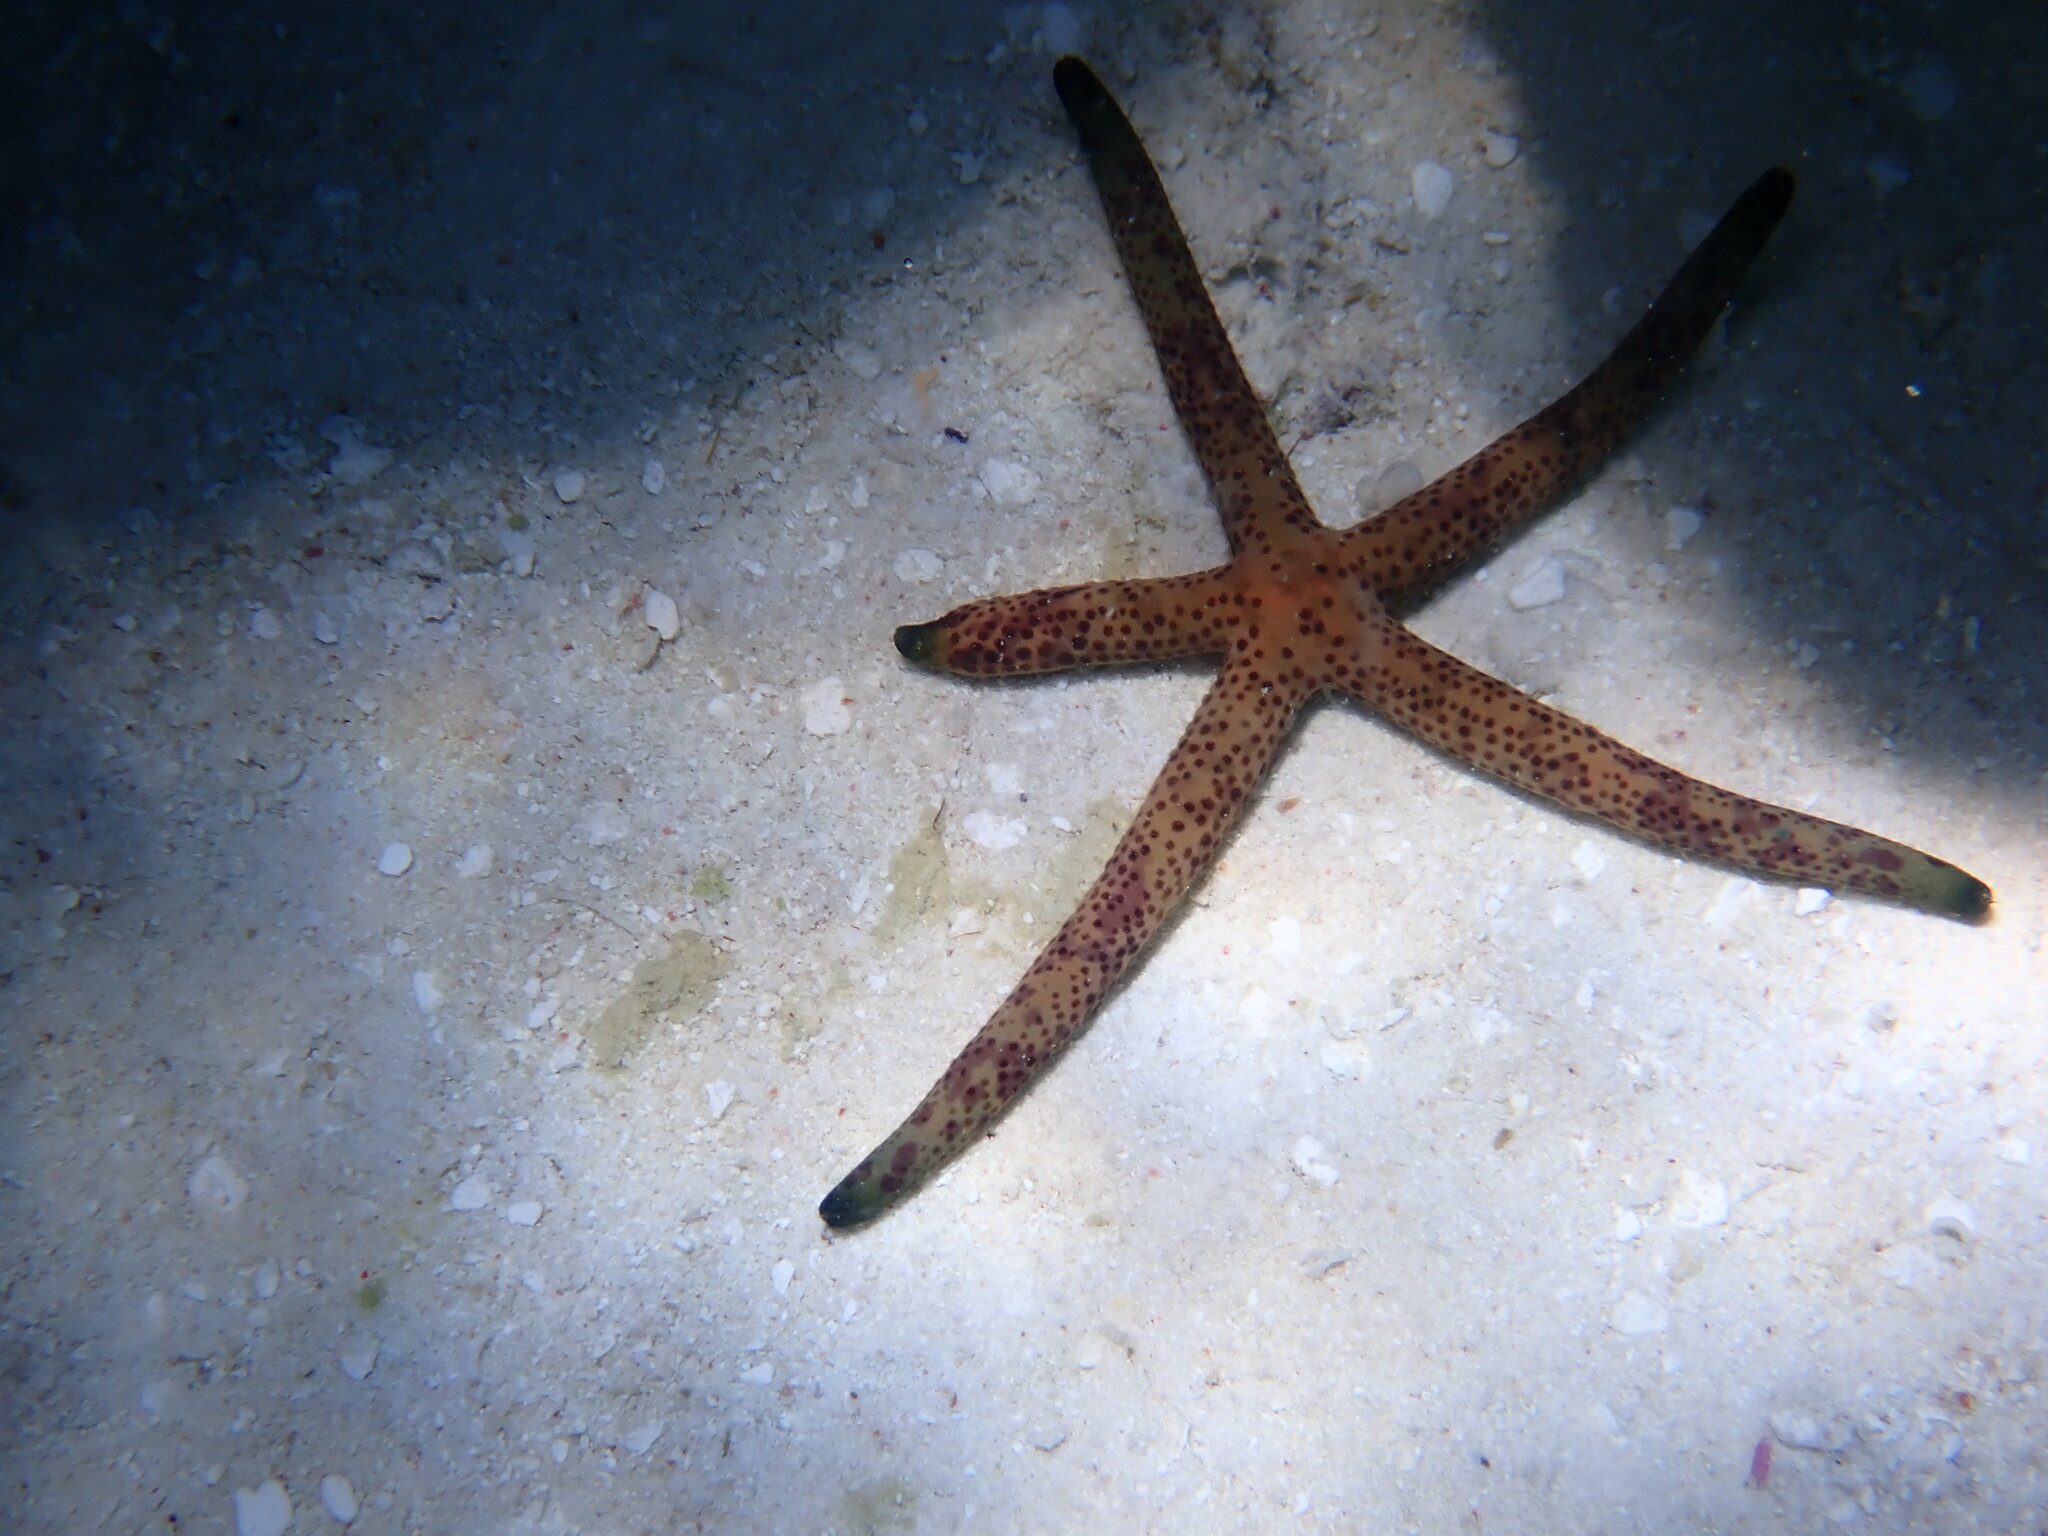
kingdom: Animalia
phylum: Echinodermata
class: Asteroidea
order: Valvatida
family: Ophidiasteridae
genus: Linckia
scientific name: Linckia multifora
